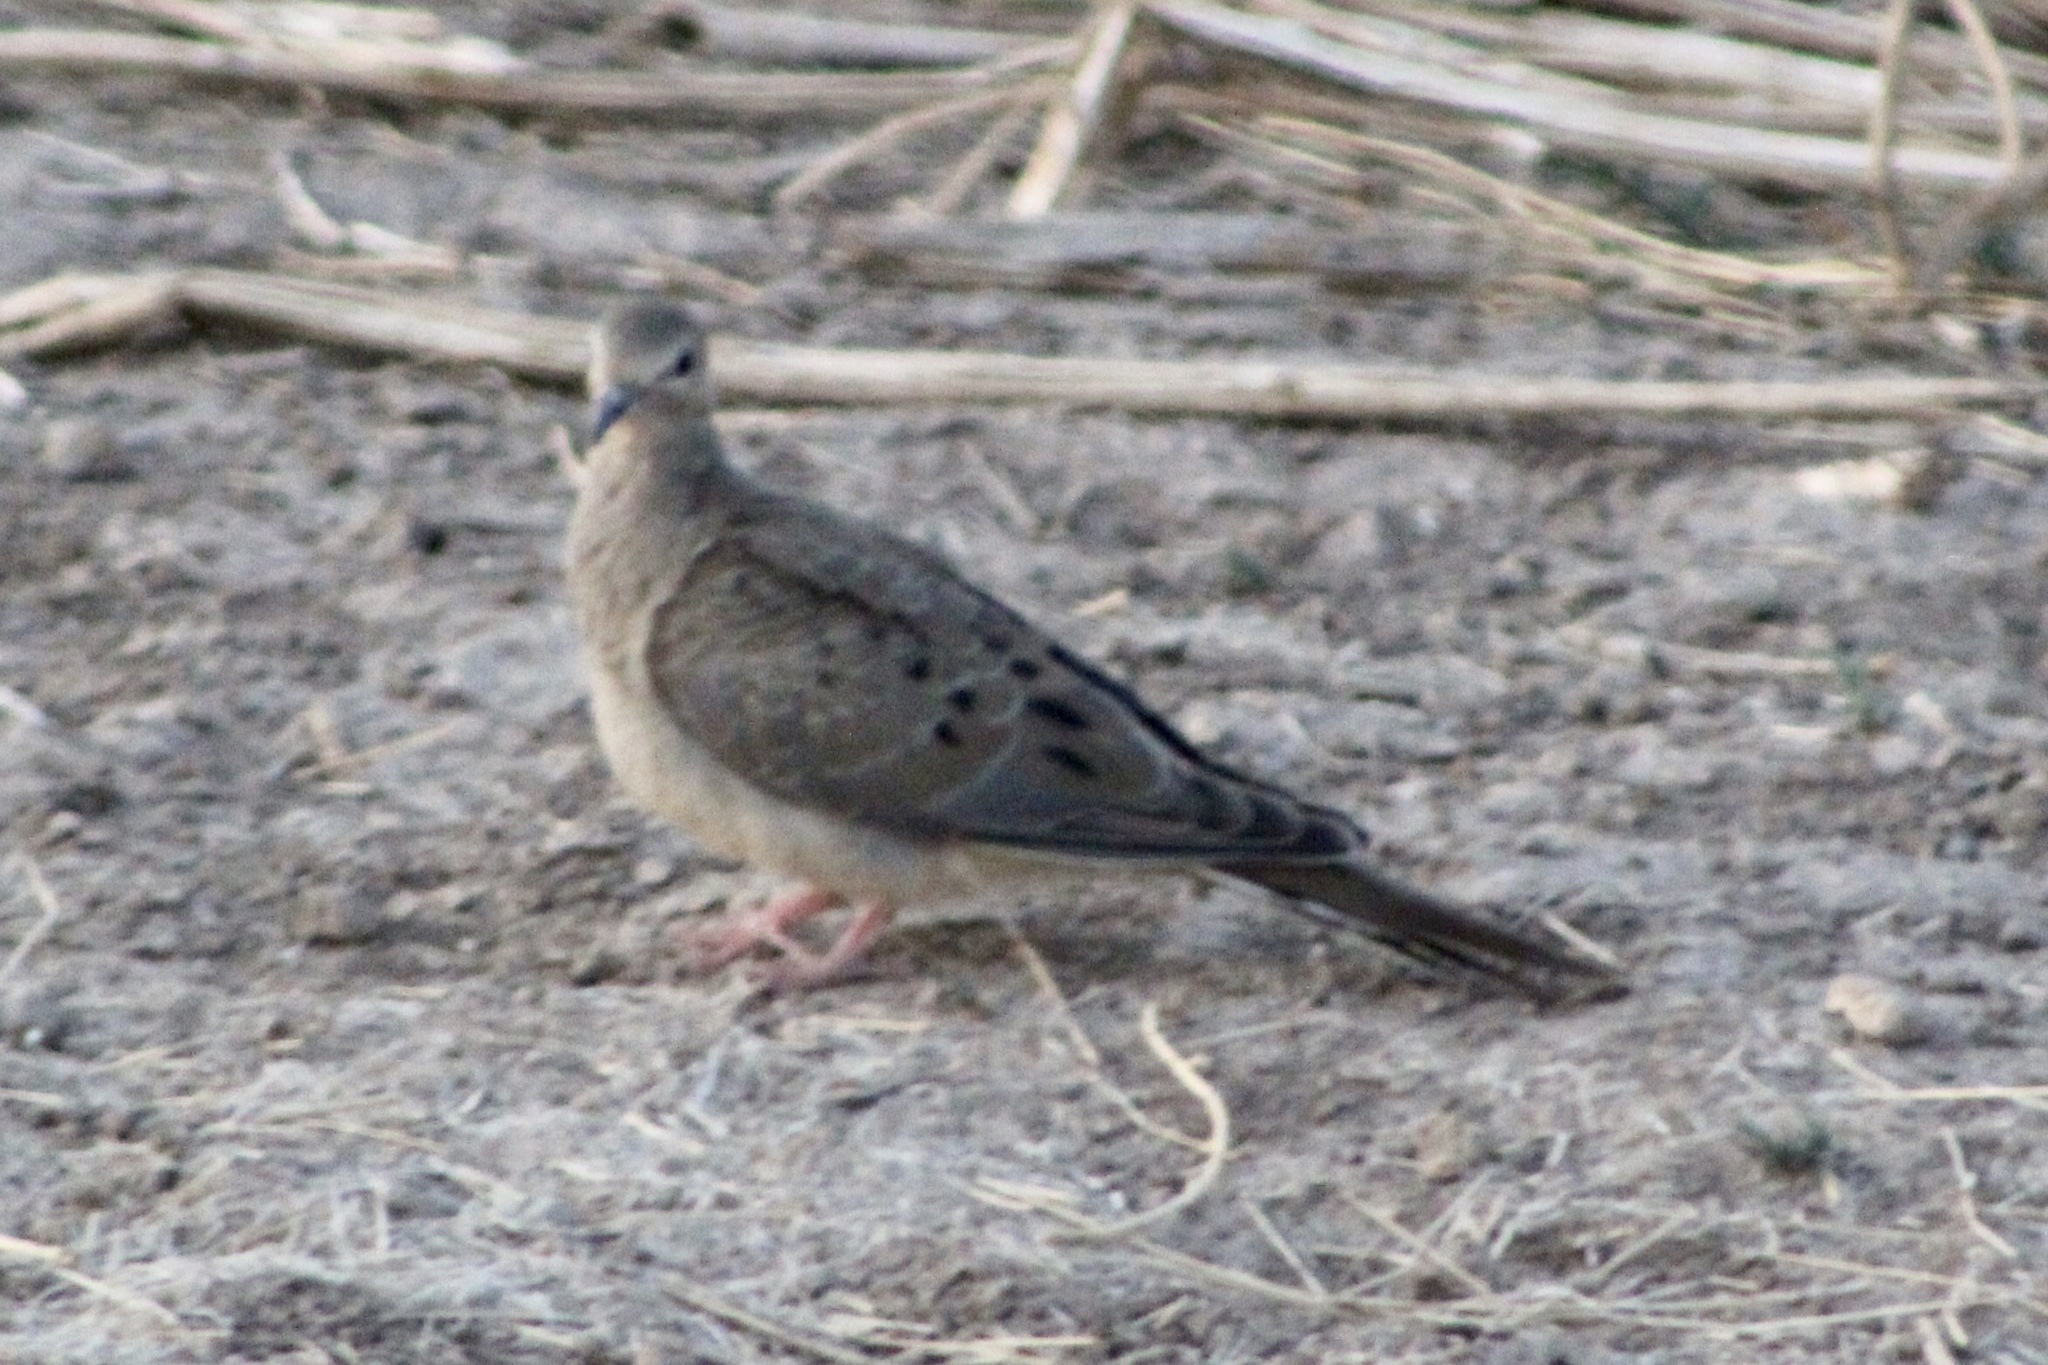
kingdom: Animalia
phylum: Chordata
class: Aves
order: Columbiformes
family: Columbidae
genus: Zenaida
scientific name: Zenaida macroura
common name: Mourning dove
